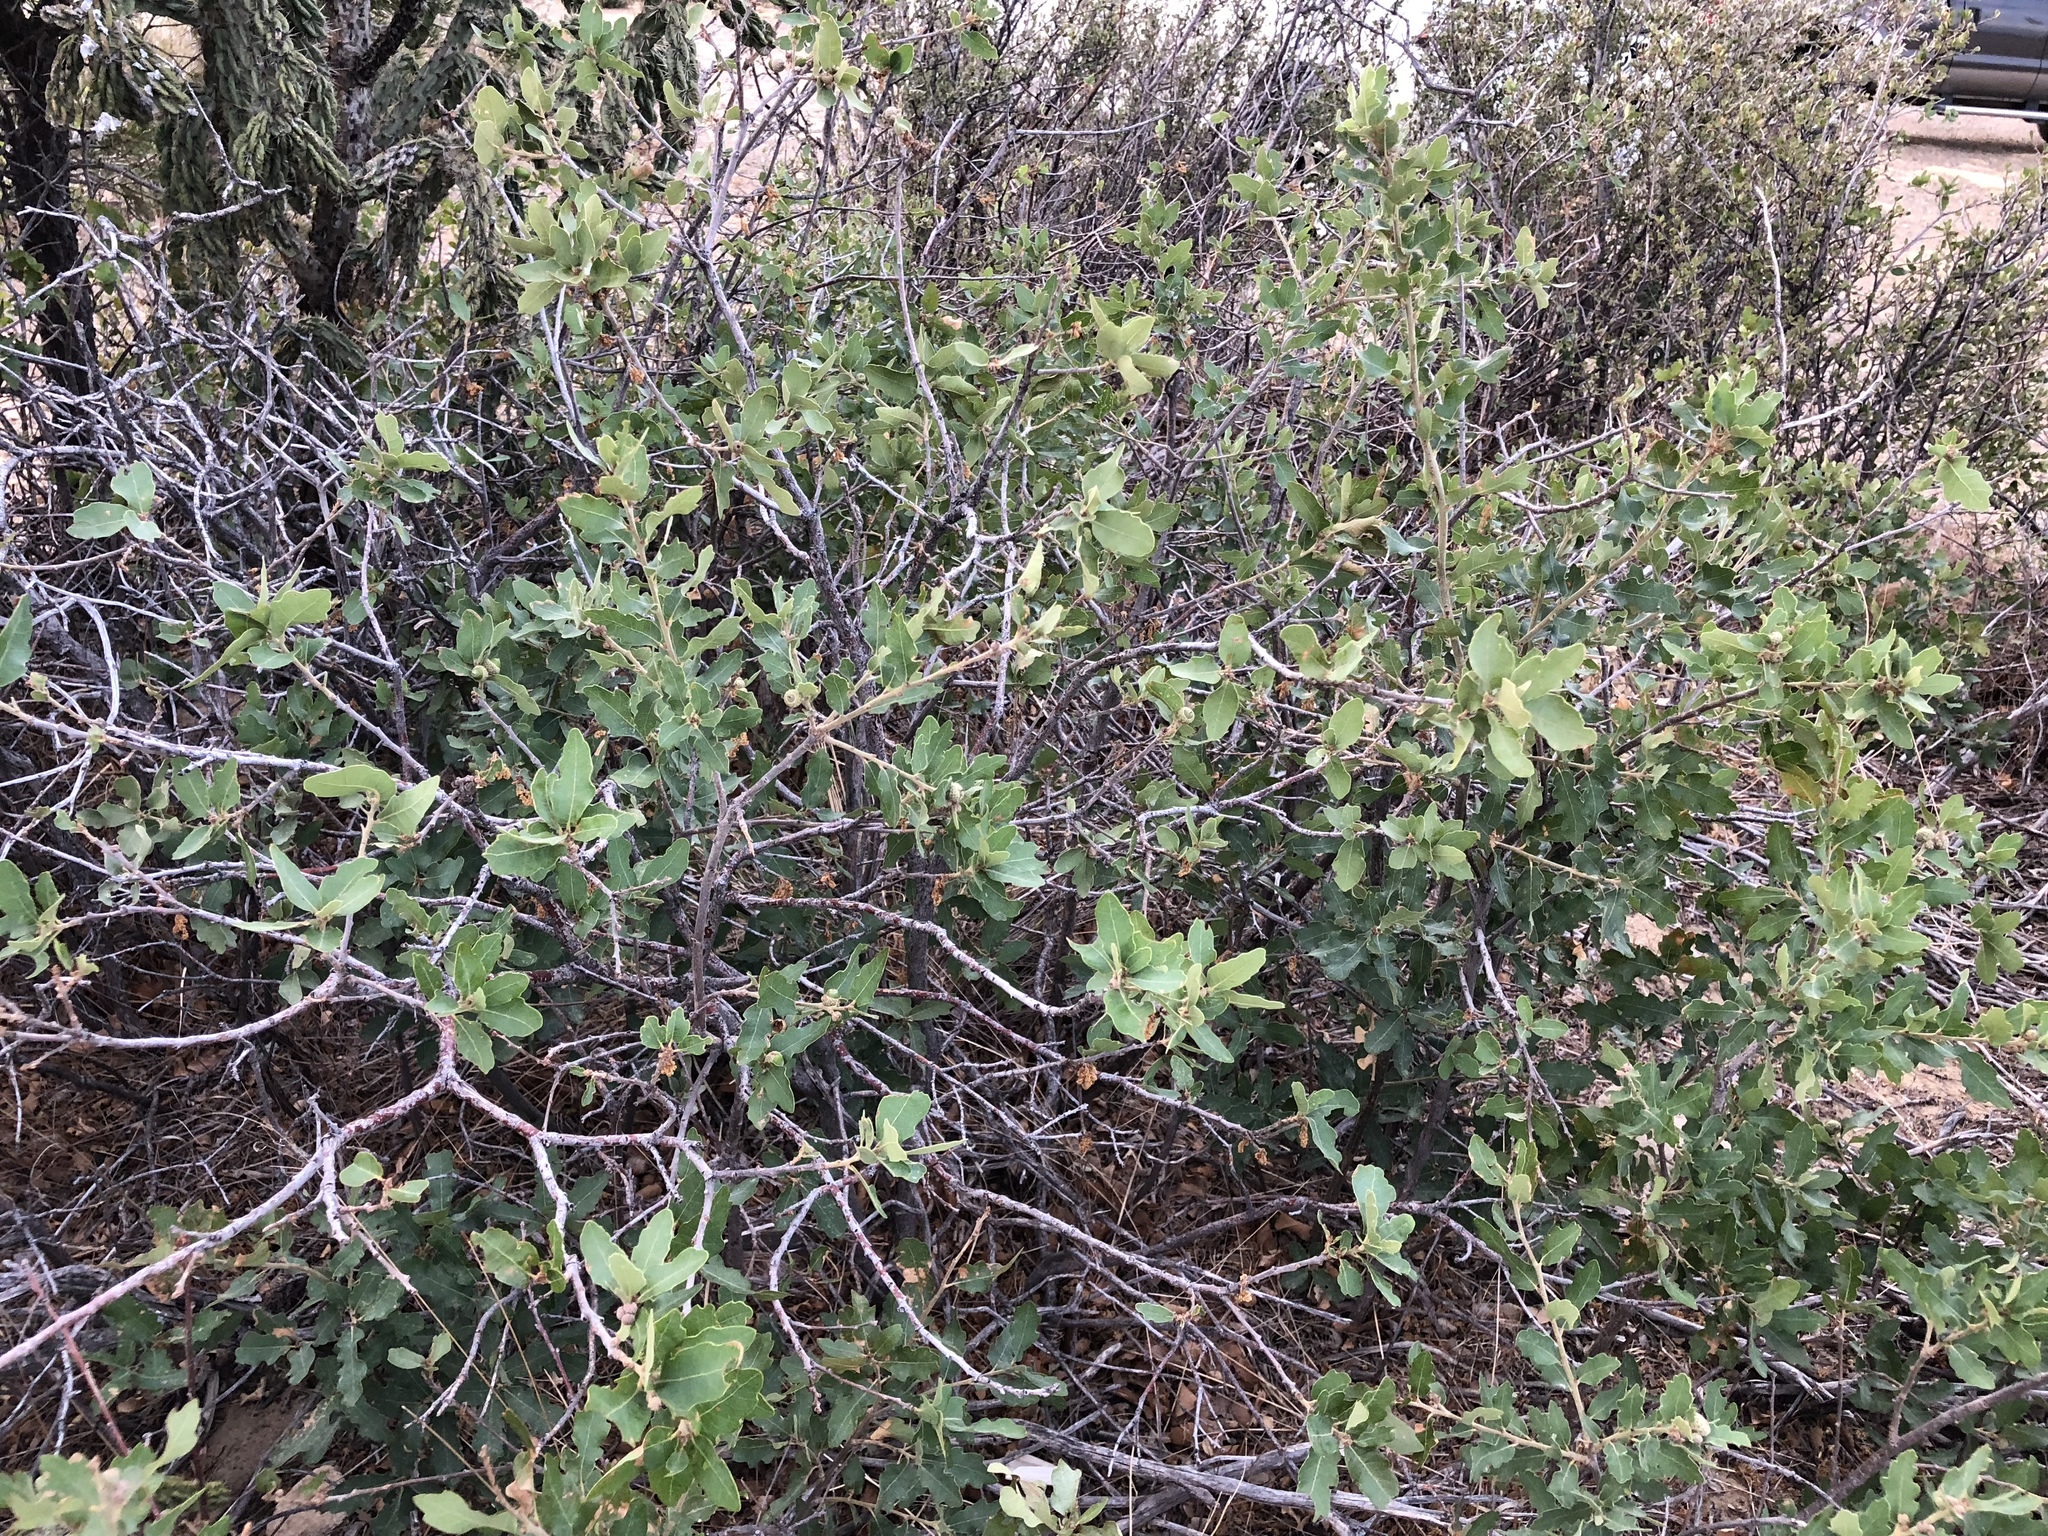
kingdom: Plantae
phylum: Tracheophyta
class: Magnoliopsida
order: Fagales
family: Fagaceae
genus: Quercus
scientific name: Quercus undulata
